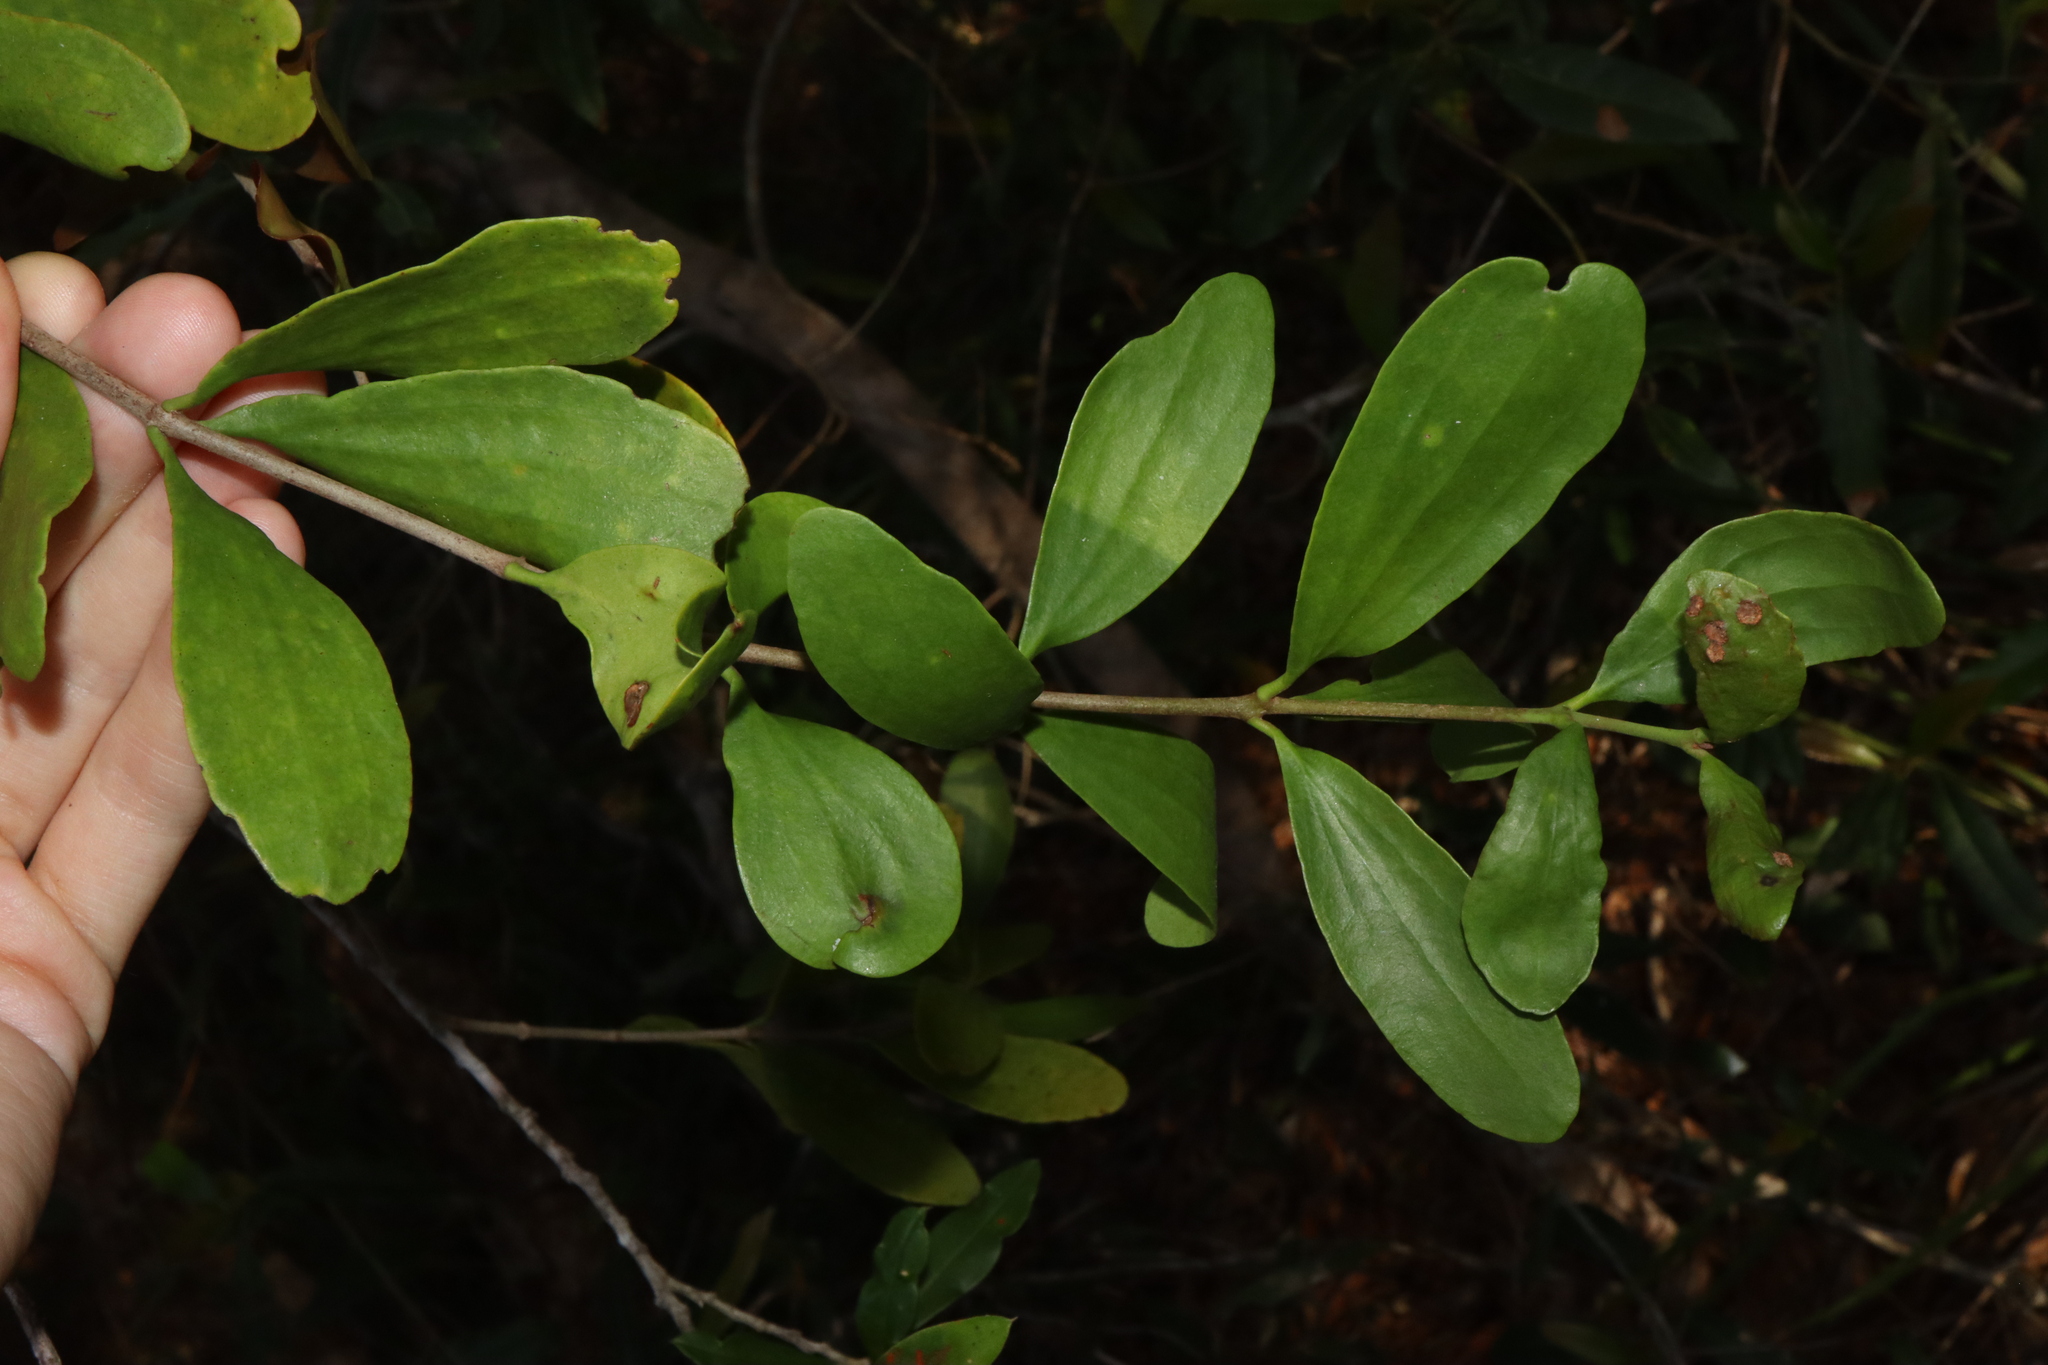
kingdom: Plantae
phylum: Tracheophyta
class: Magnoliopsida
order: Santalales
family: Loranthaceae
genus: Amyema
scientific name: Amyema congener
